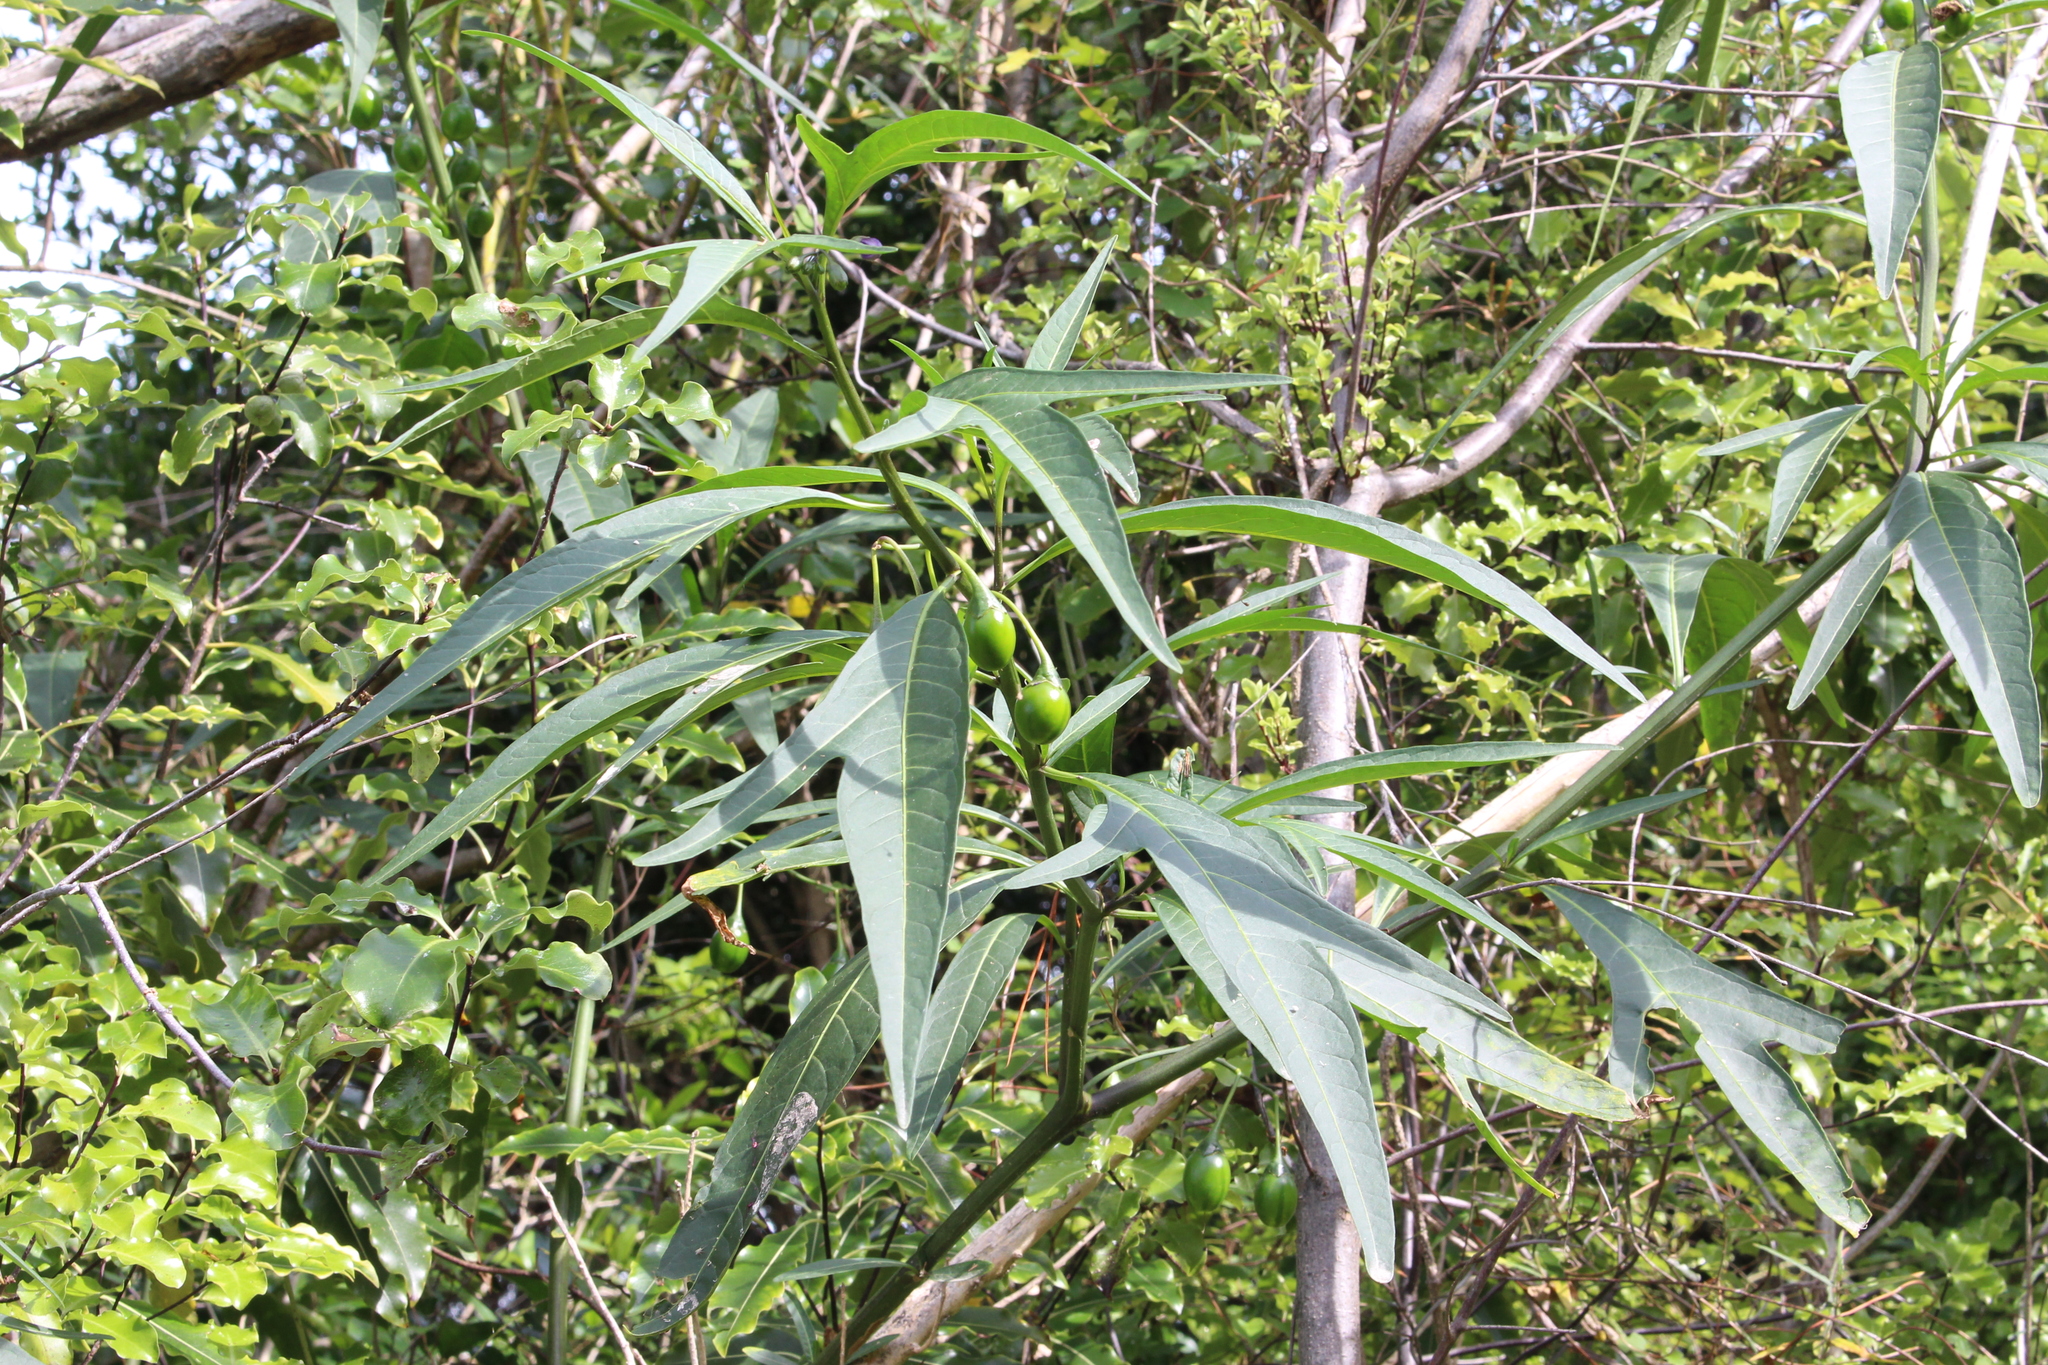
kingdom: Plantae
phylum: Tracheophyta
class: Magnoliopsida
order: Solanales
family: Solanaceae
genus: Solanum
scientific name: Solanum laciniatum
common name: Kangaroo-apple
